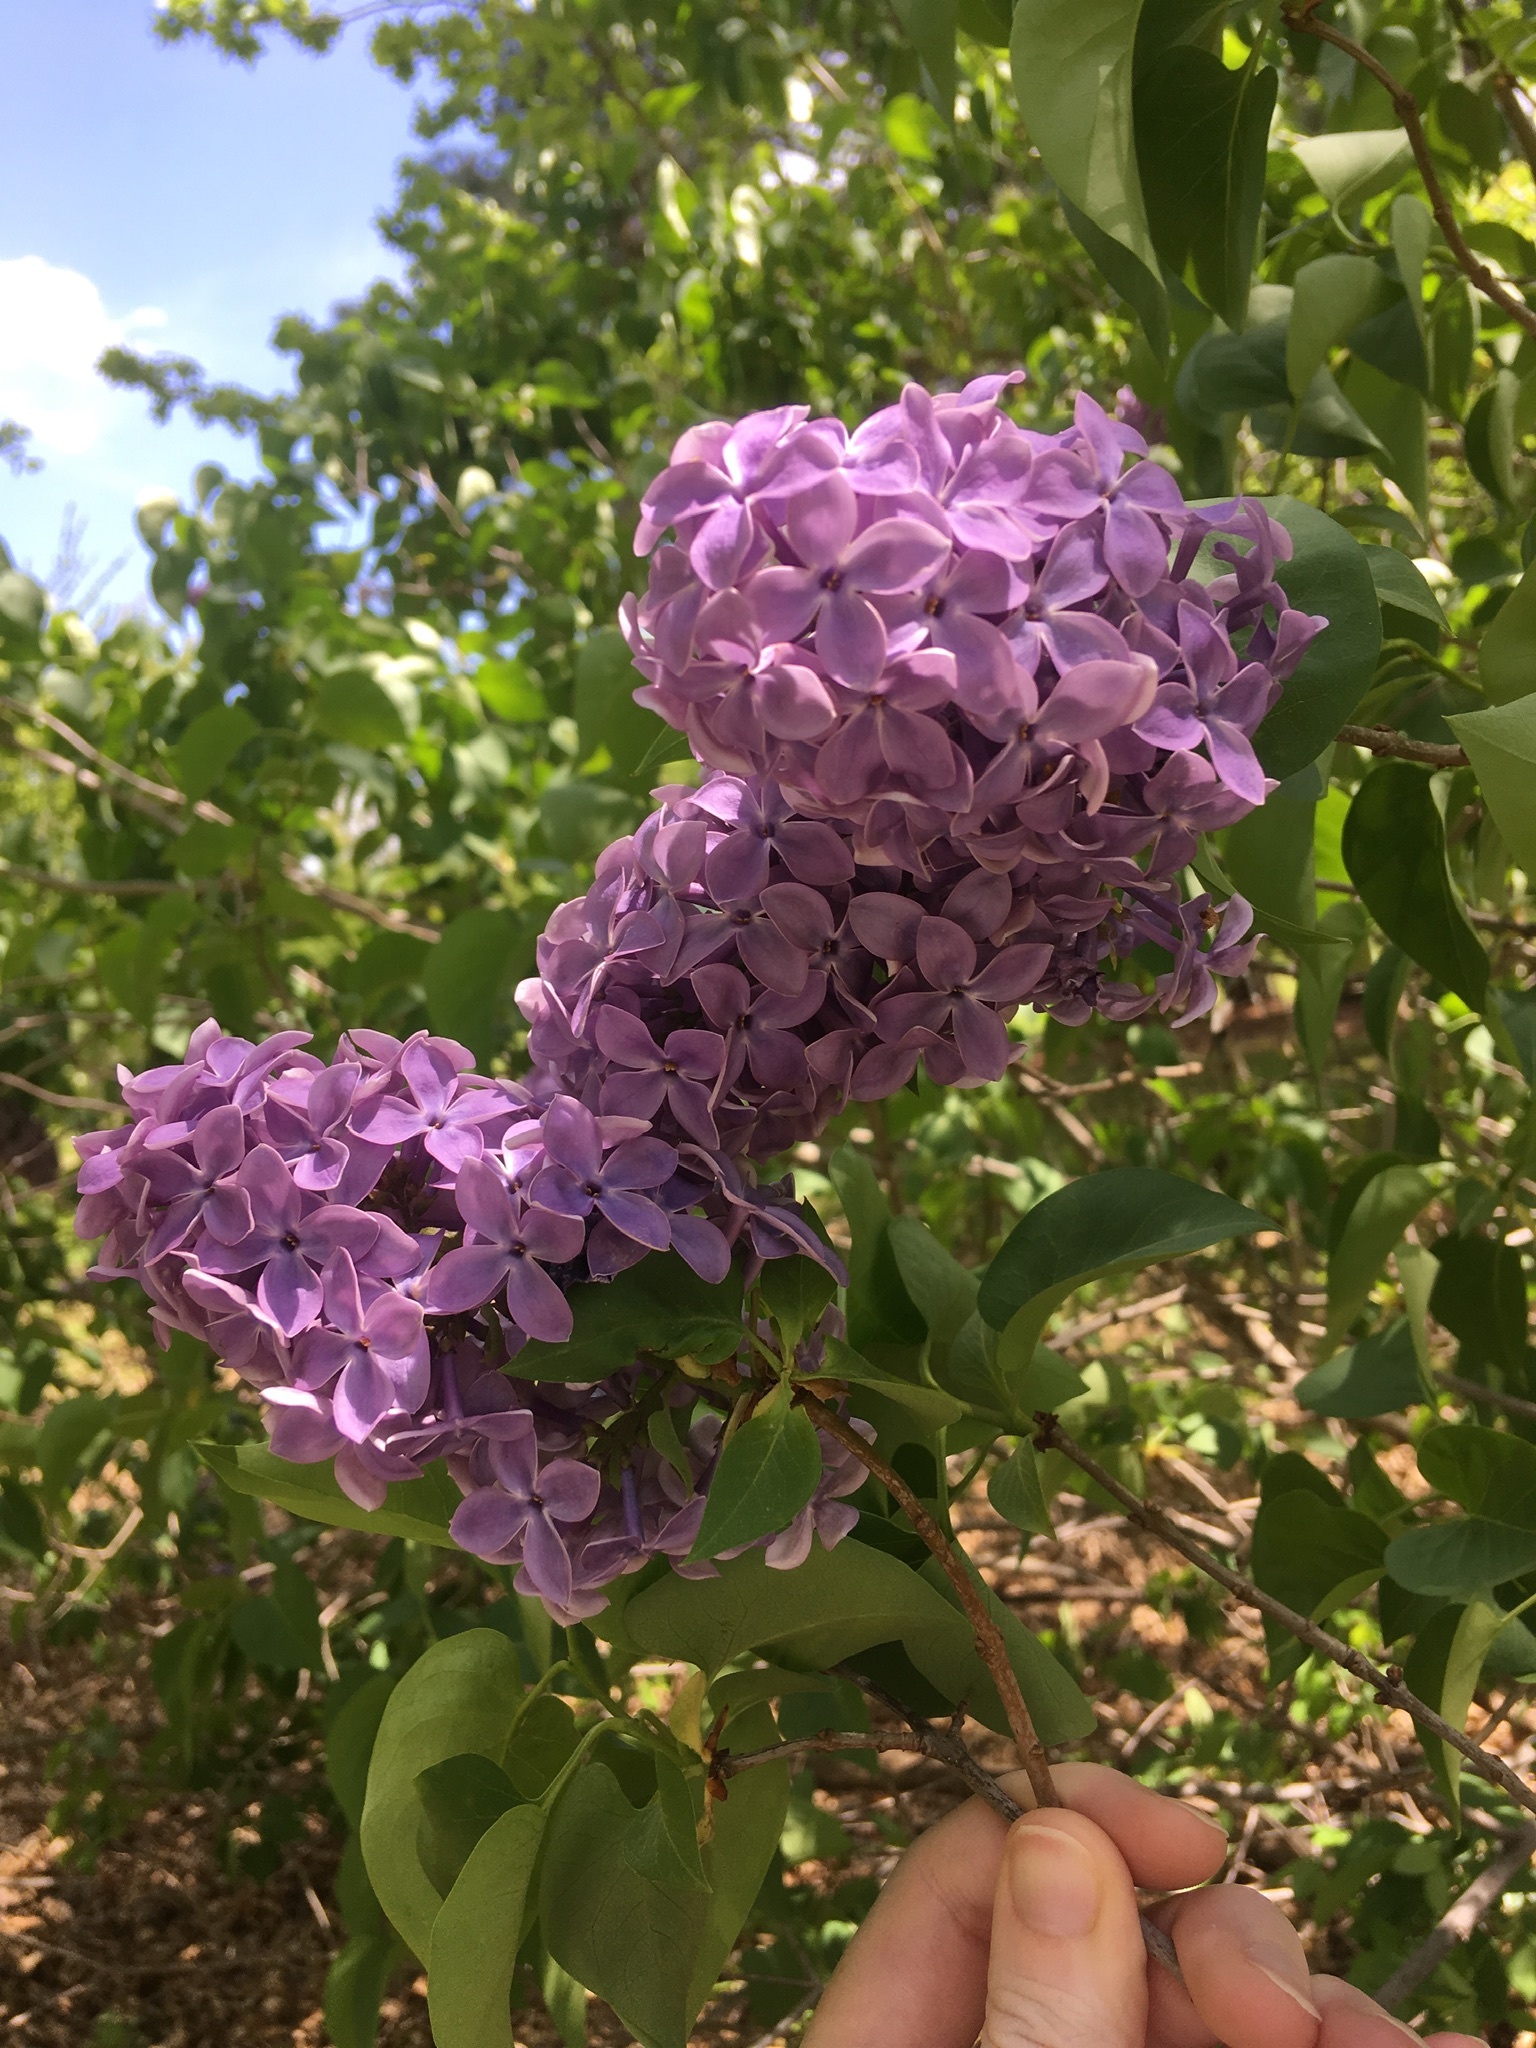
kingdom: Plantae
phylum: Tracheophyta
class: Magnoliopsida
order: Lamiales
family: Oleaceae
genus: Syringa
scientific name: Syringa vulgaris
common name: Common lilac
